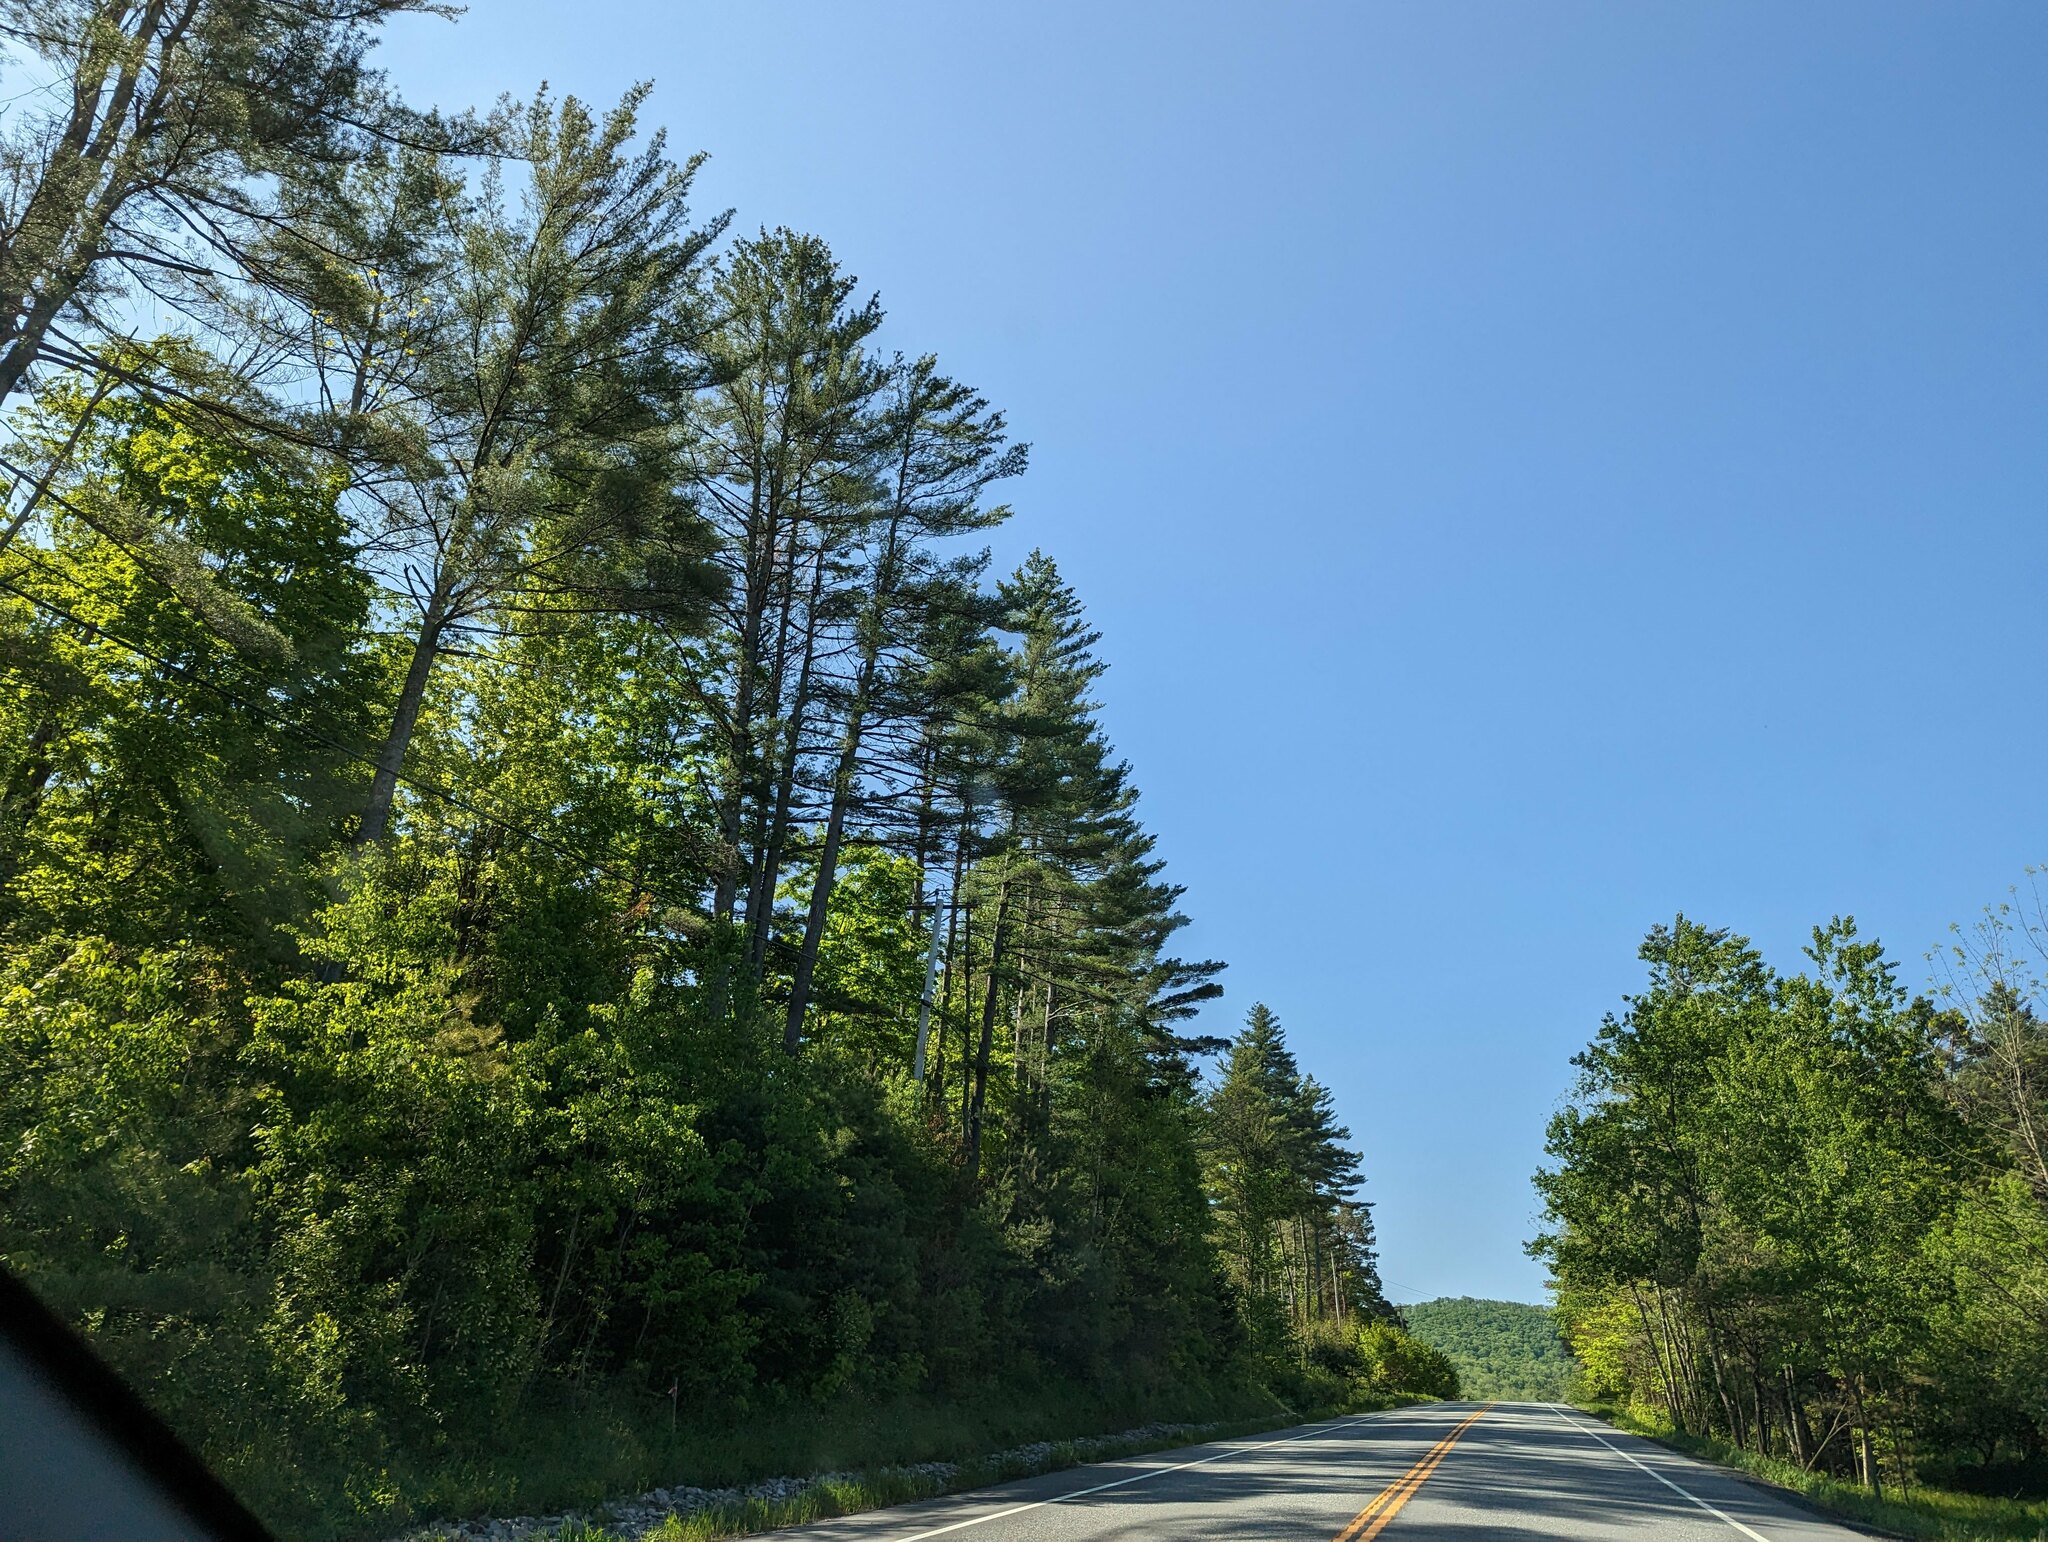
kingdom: Plantae
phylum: Tracheophyta
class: Pinopsida
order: Pinales
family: Pinaceae
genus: Pinus
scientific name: Pinus strobus
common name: Weymouth pine
